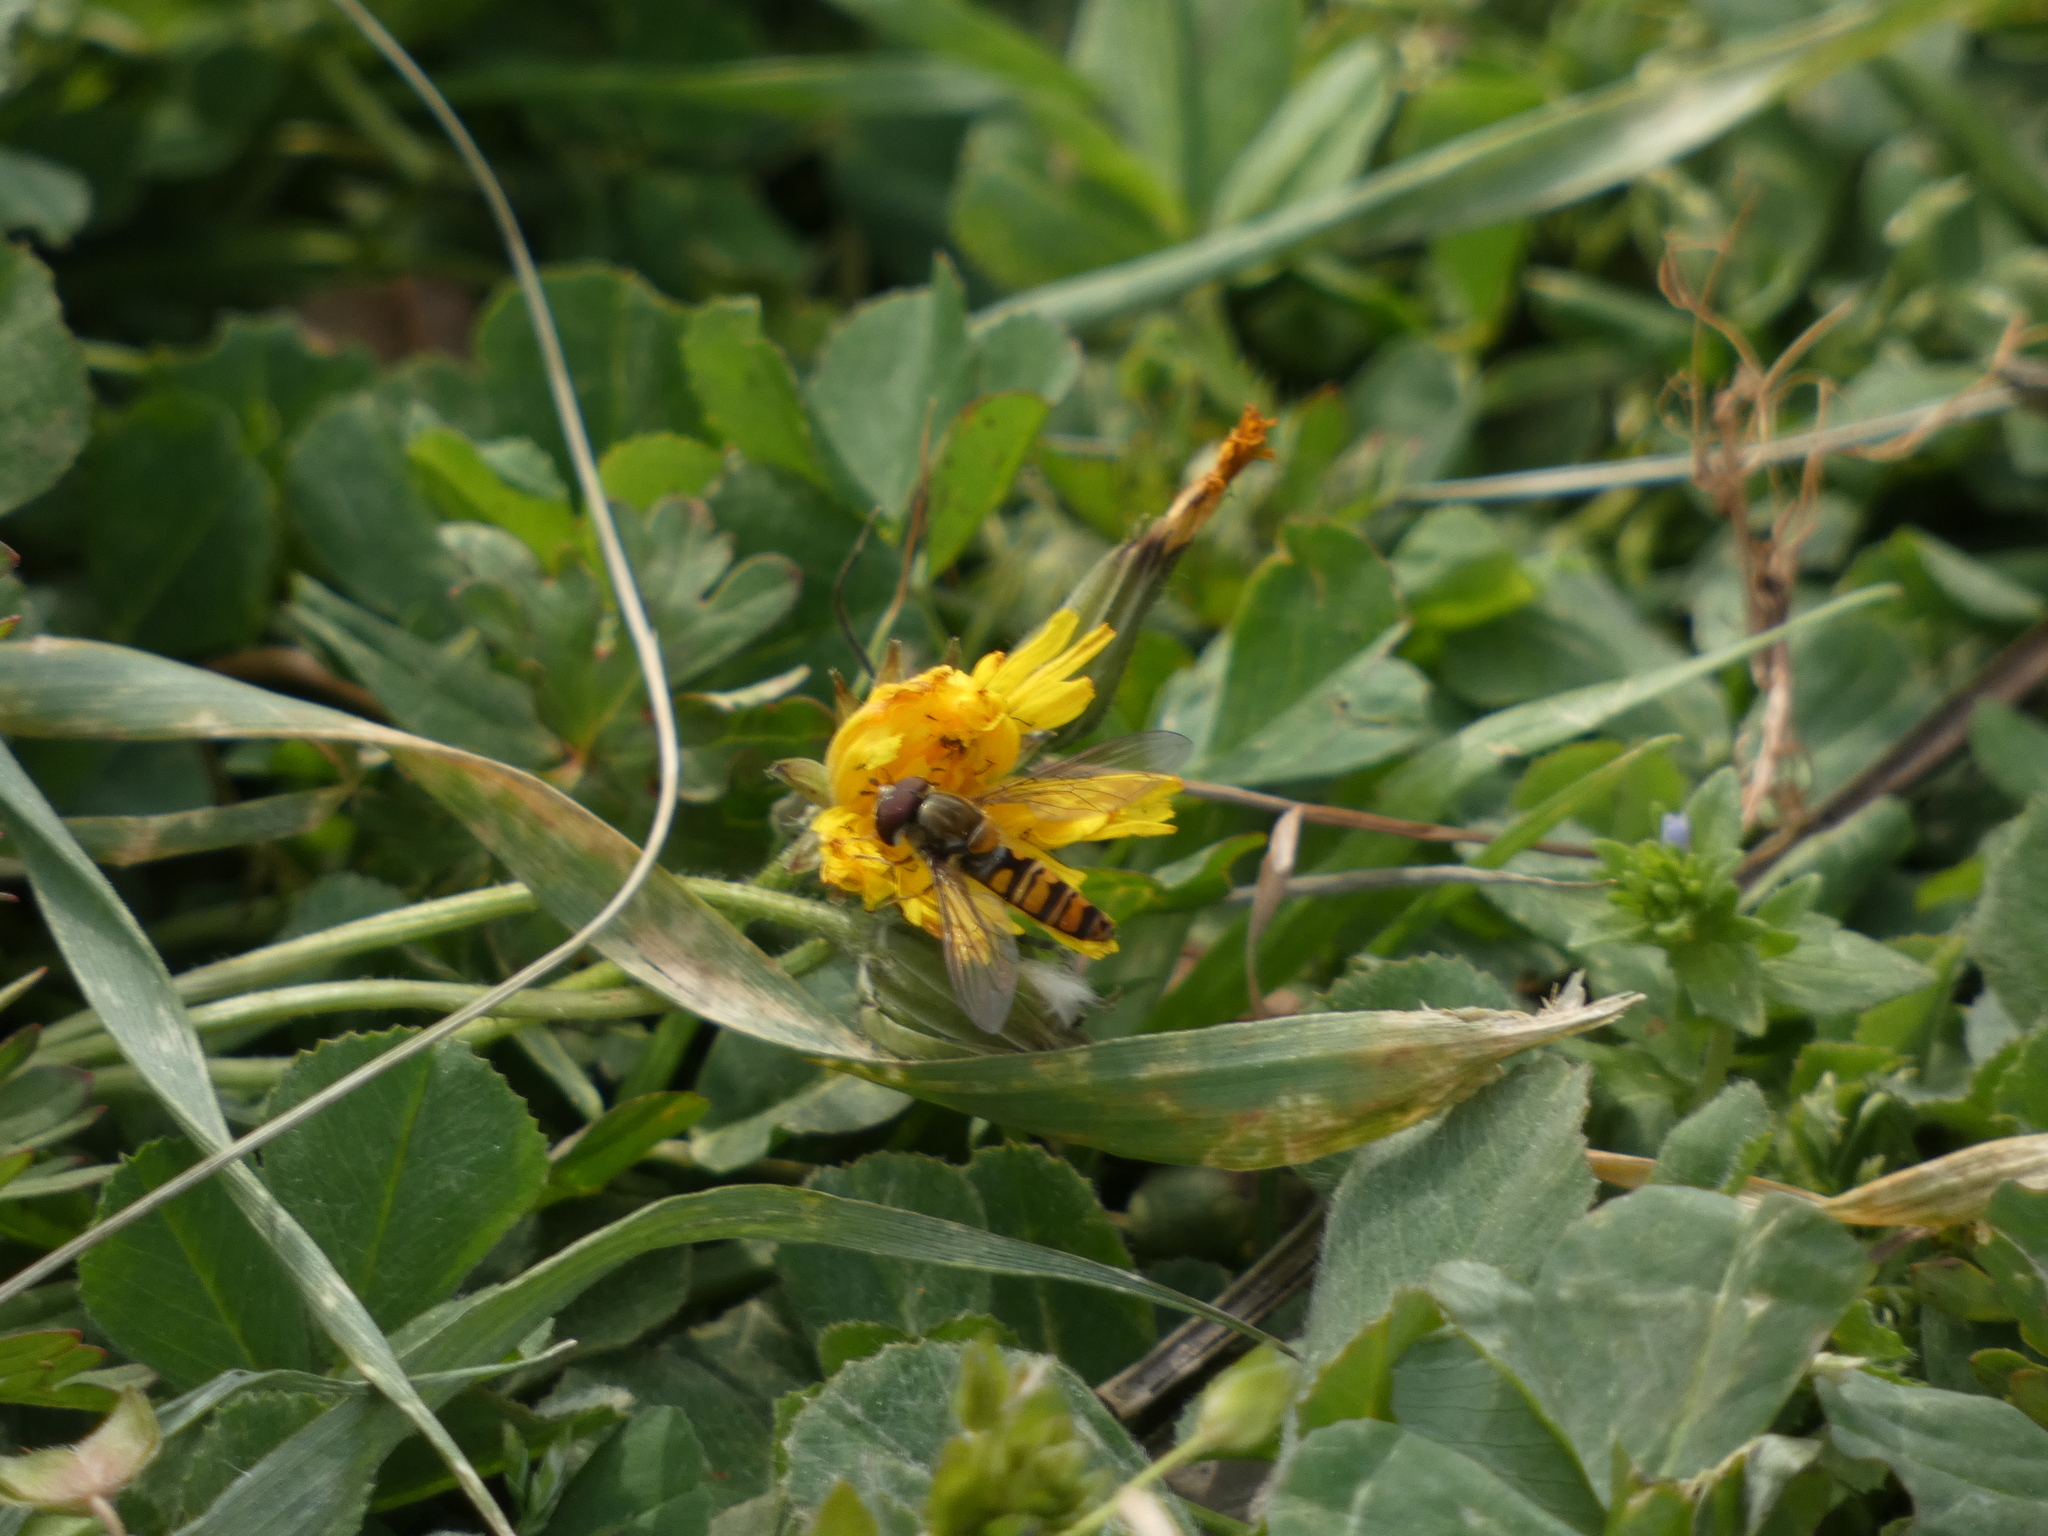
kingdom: Animalia
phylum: Arthropoda
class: Insecta
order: Diptera
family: Syrphidae
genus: Episyrphus
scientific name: Episyrphus balteatus
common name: Marmalade hoverfly
